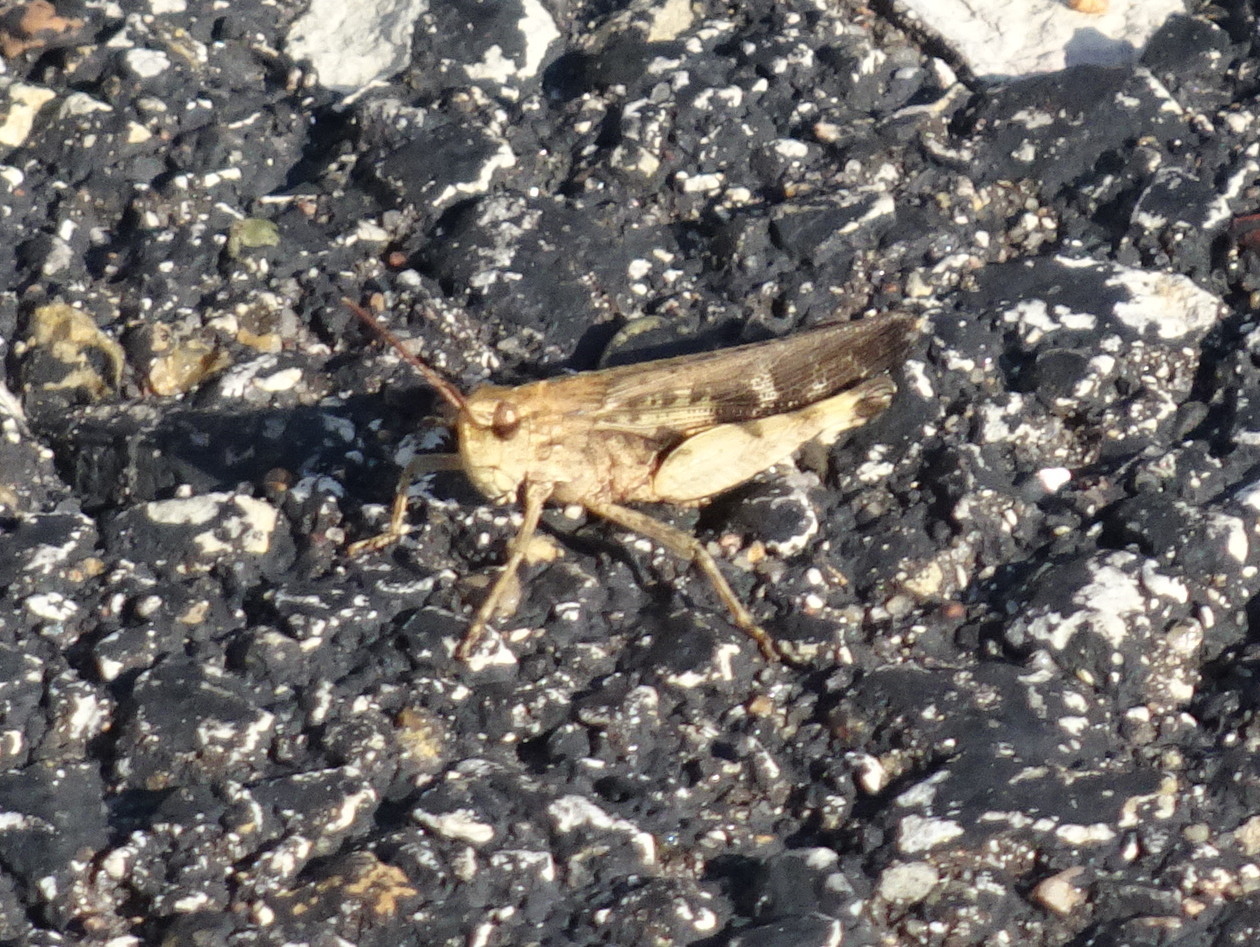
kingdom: Animalia
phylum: Arthropoda
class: Insecta
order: Orthoptera
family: Acrididae
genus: Chortophaga
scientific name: Chortophaga viridifasciata
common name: Green-striped grasshopper
